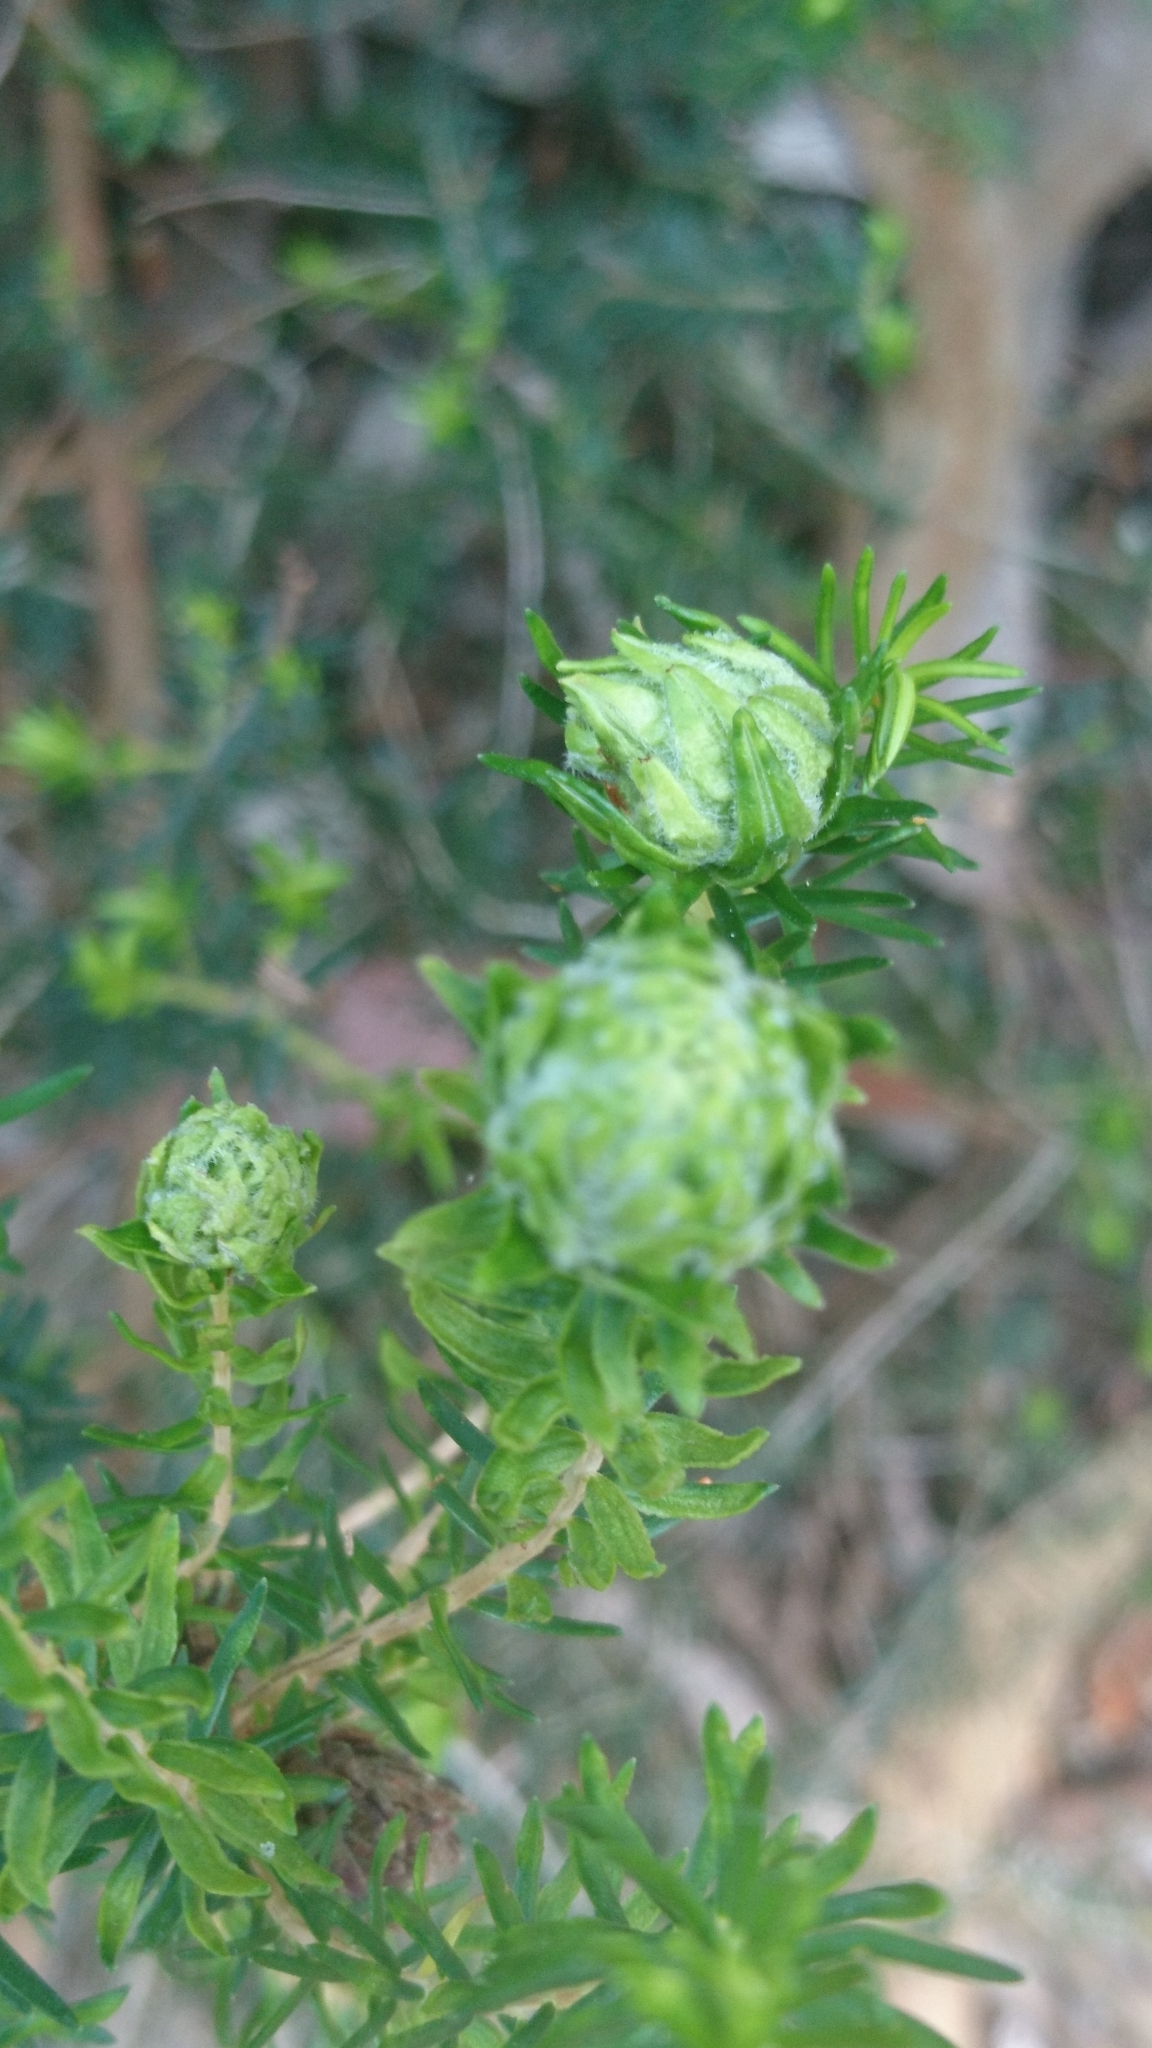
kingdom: Animalia
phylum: Arthropoda
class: Insecta
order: Diptera
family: Cecidomyiidae
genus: Dasineura
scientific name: Dasineura ericaescopariae
